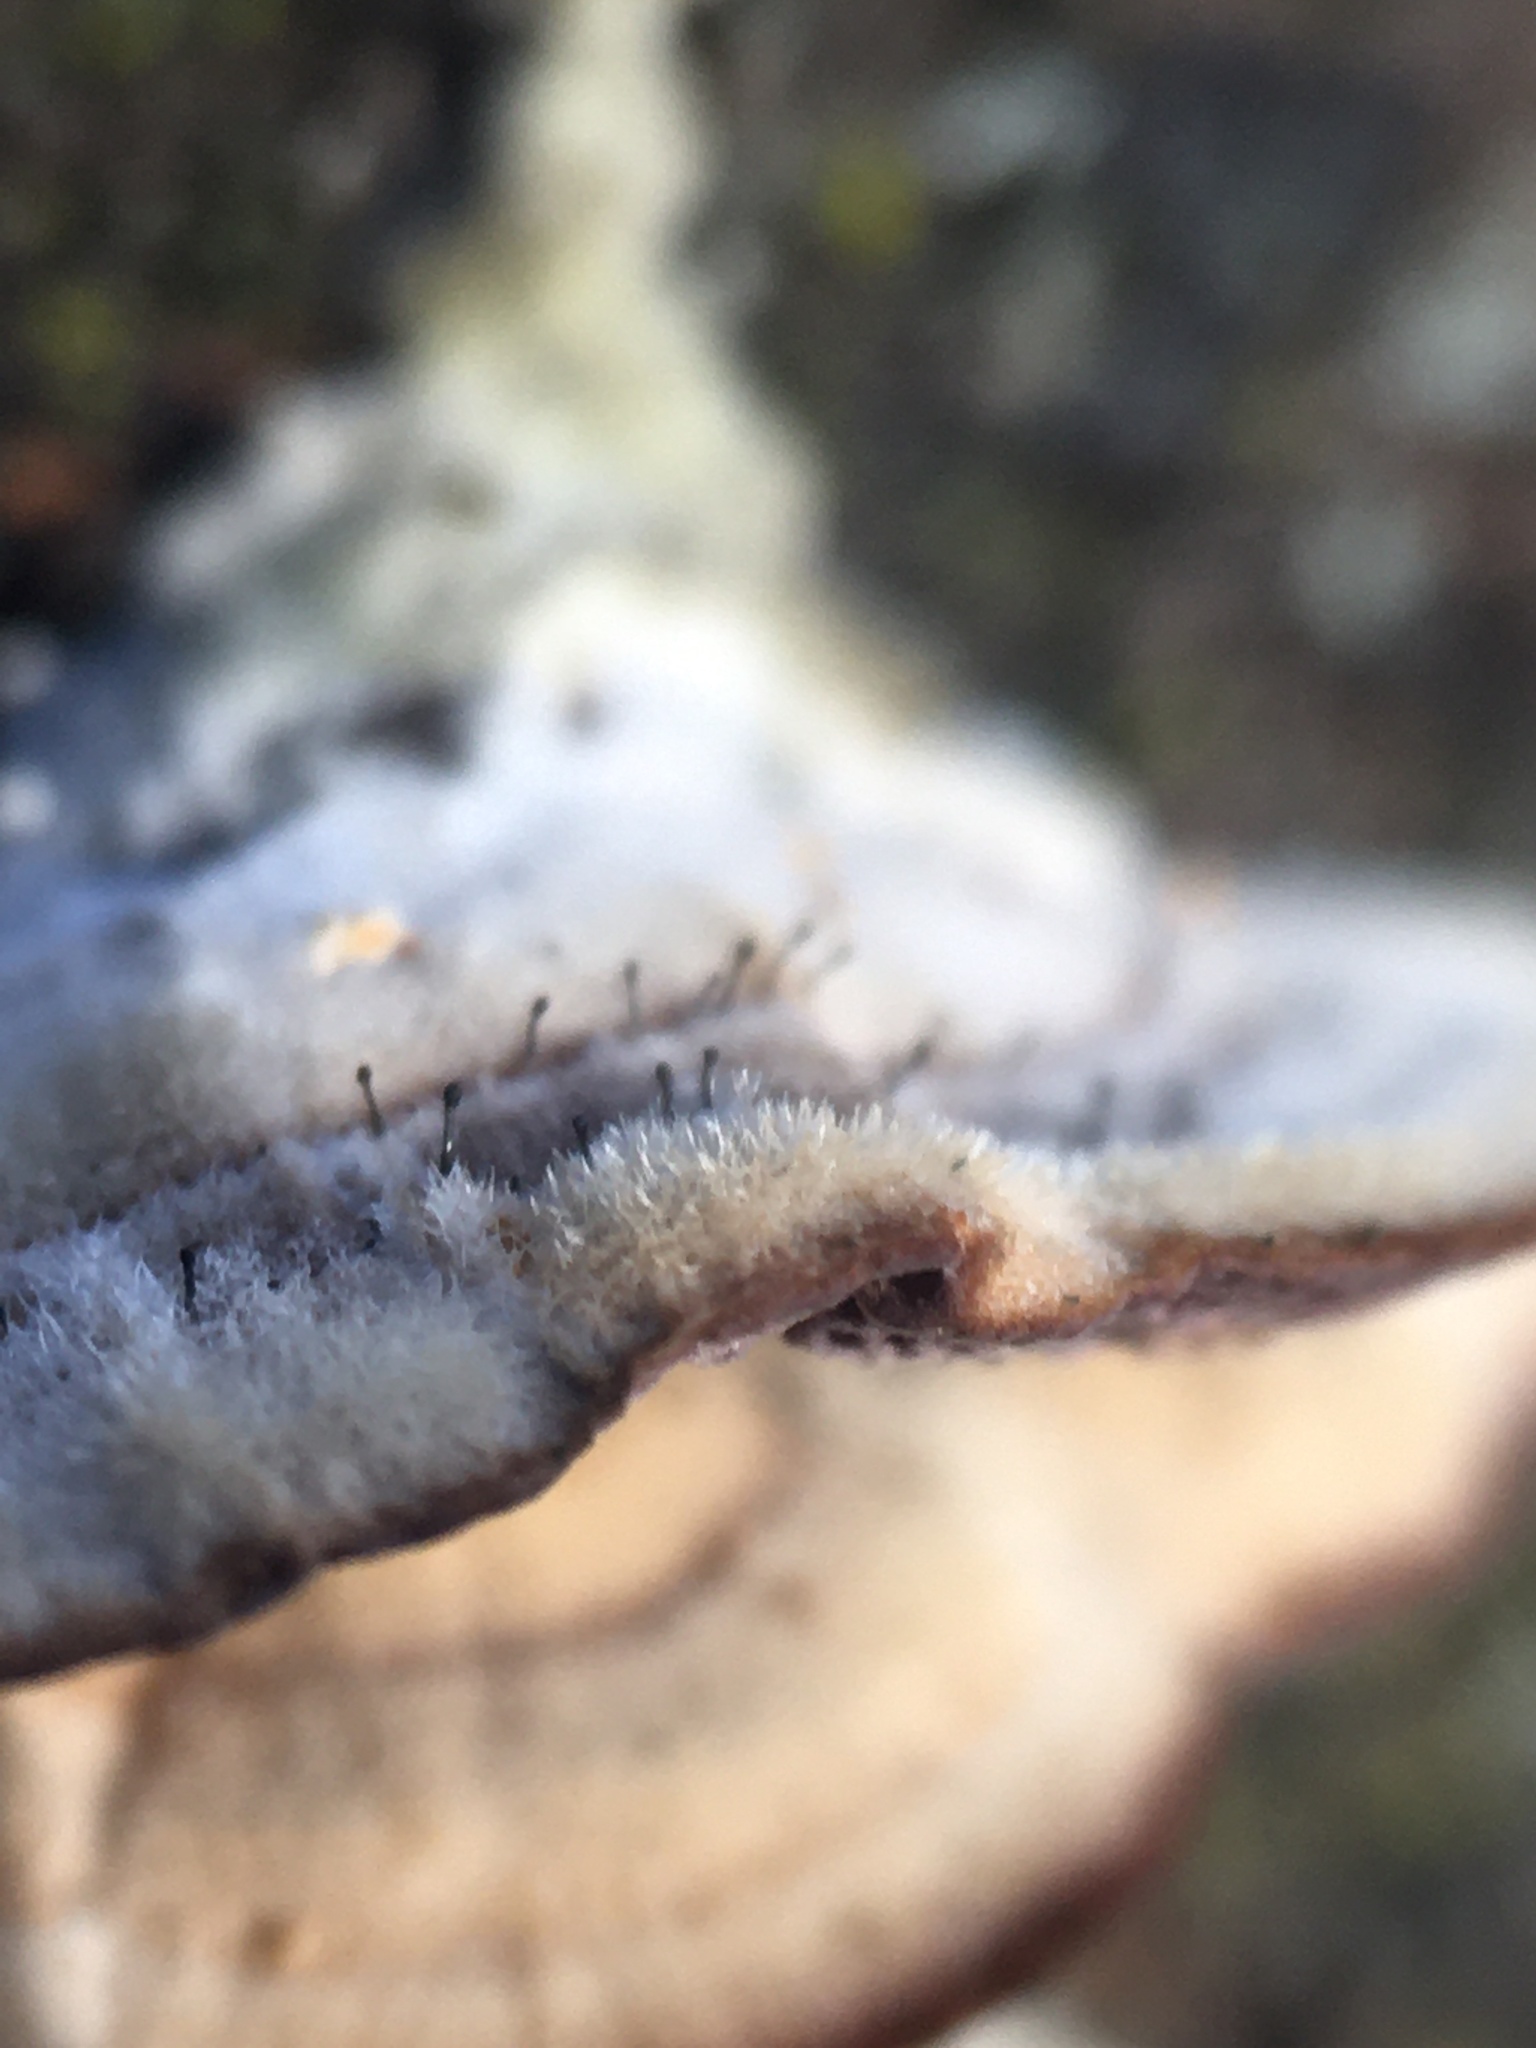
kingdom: Fungi
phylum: Ascomycota
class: Eurotiomycetes
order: Mycocaliciales
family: Mycocaliciaceae
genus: Phaeocalicium
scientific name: Phaeocalicium polyporaeum
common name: Fairy pins
